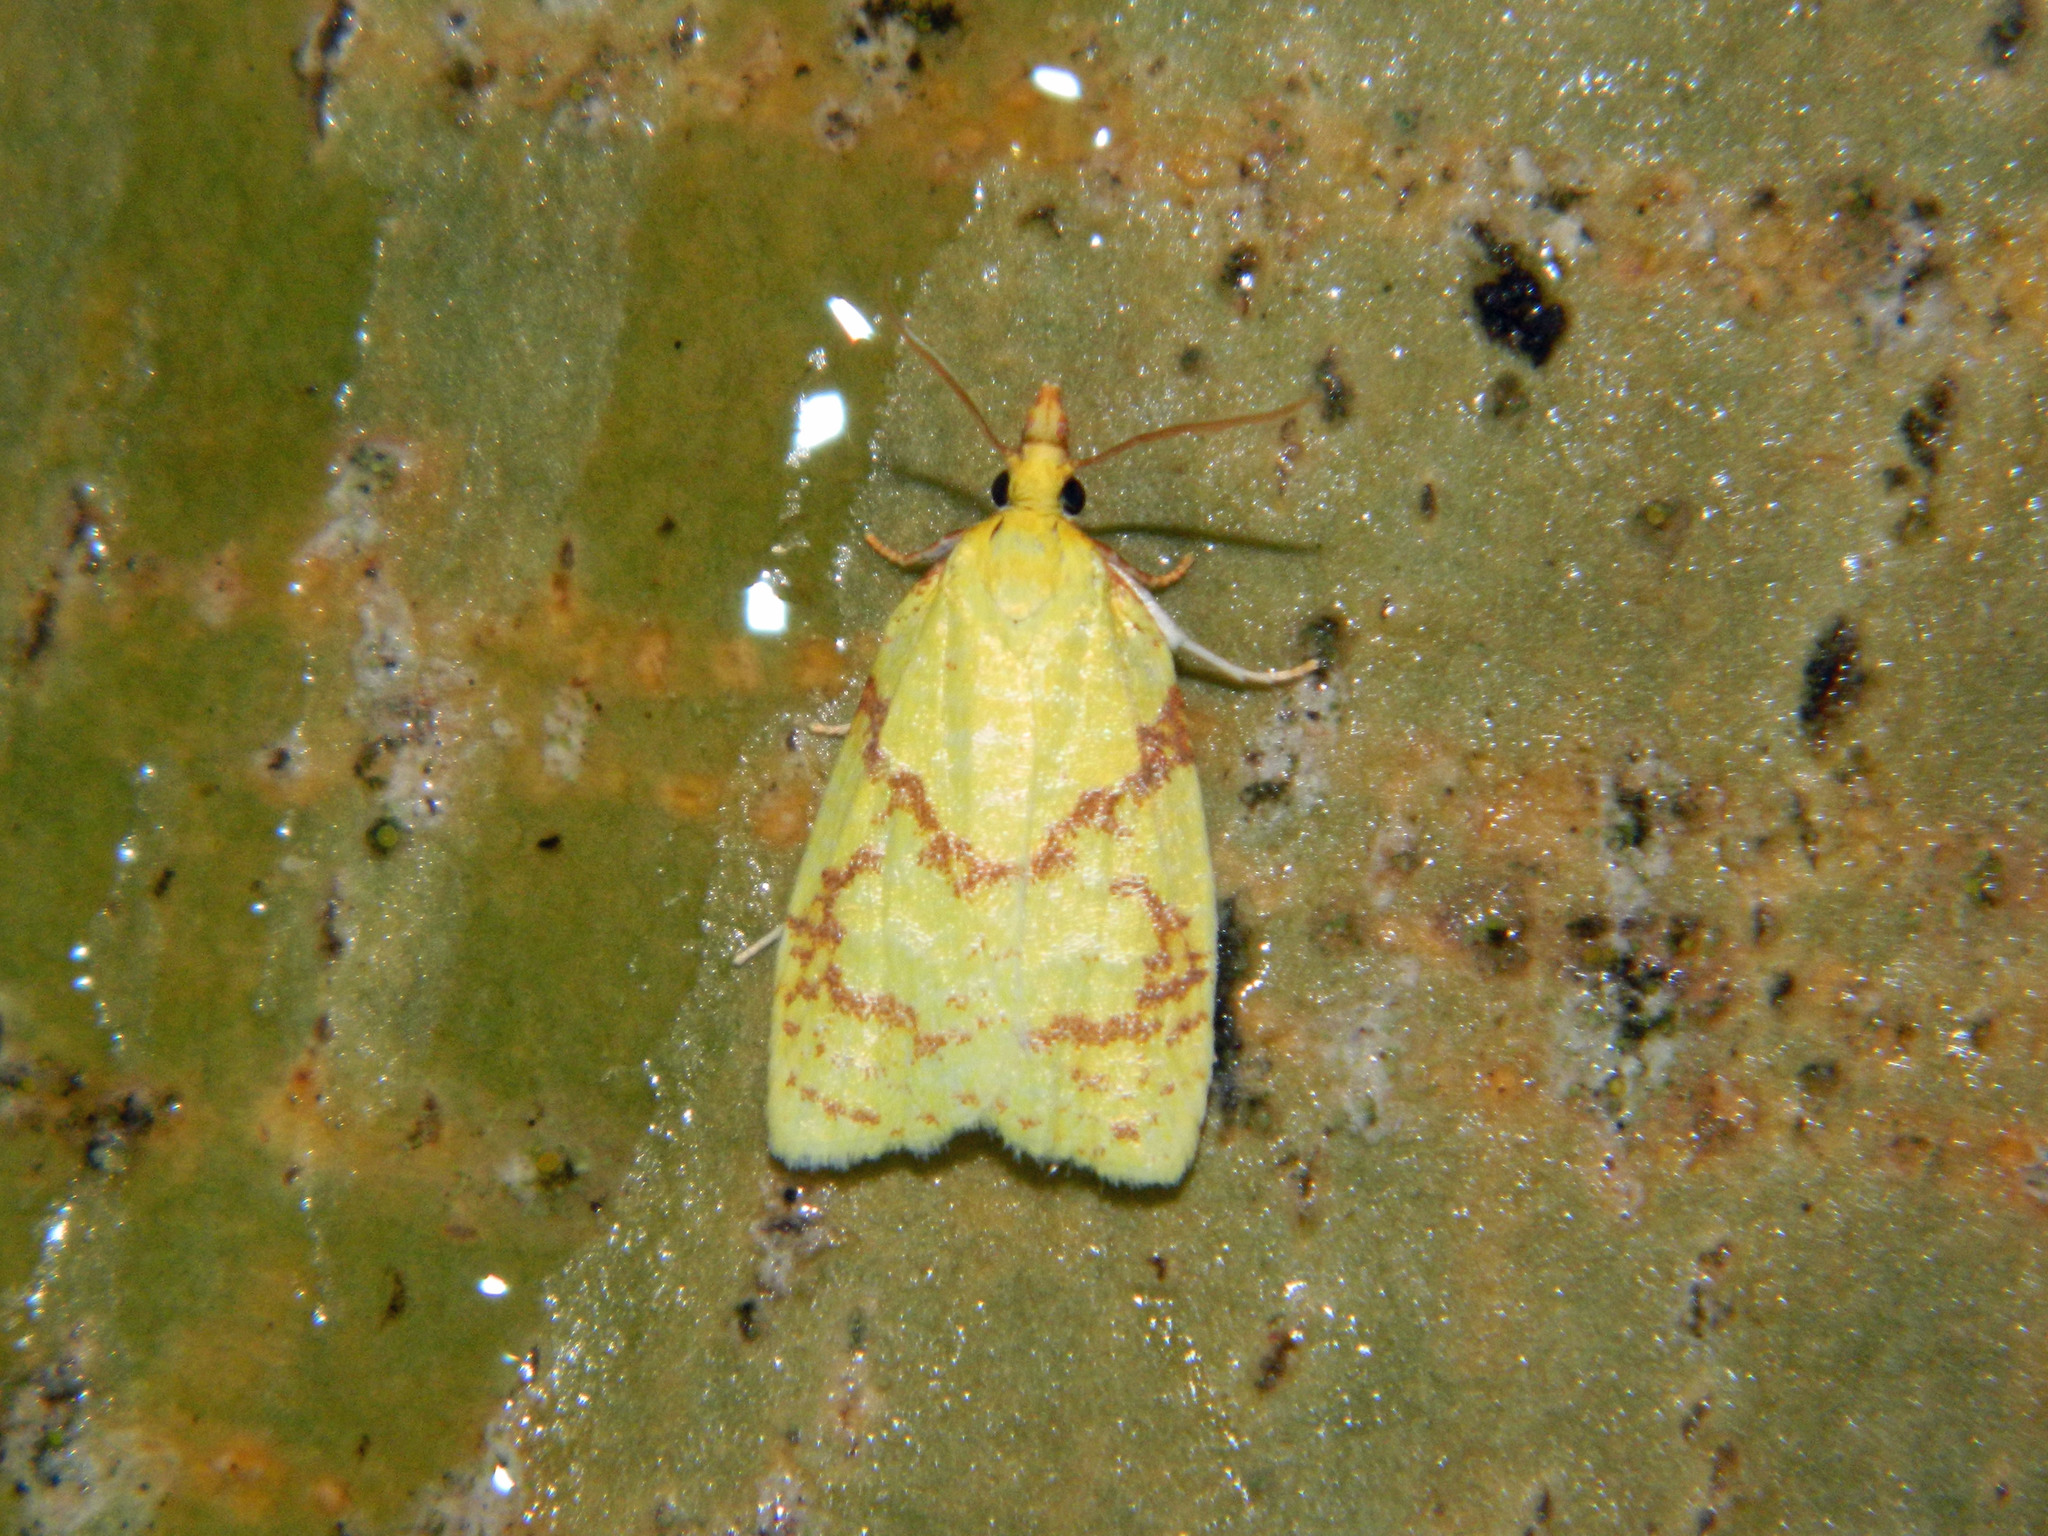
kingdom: Animalia
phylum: Arthropoda
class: Insecta
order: Lepidoptera
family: Tortricidae
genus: Cenopis
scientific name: Cenopis pettitana
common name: Maple-basswood leafroller moth
